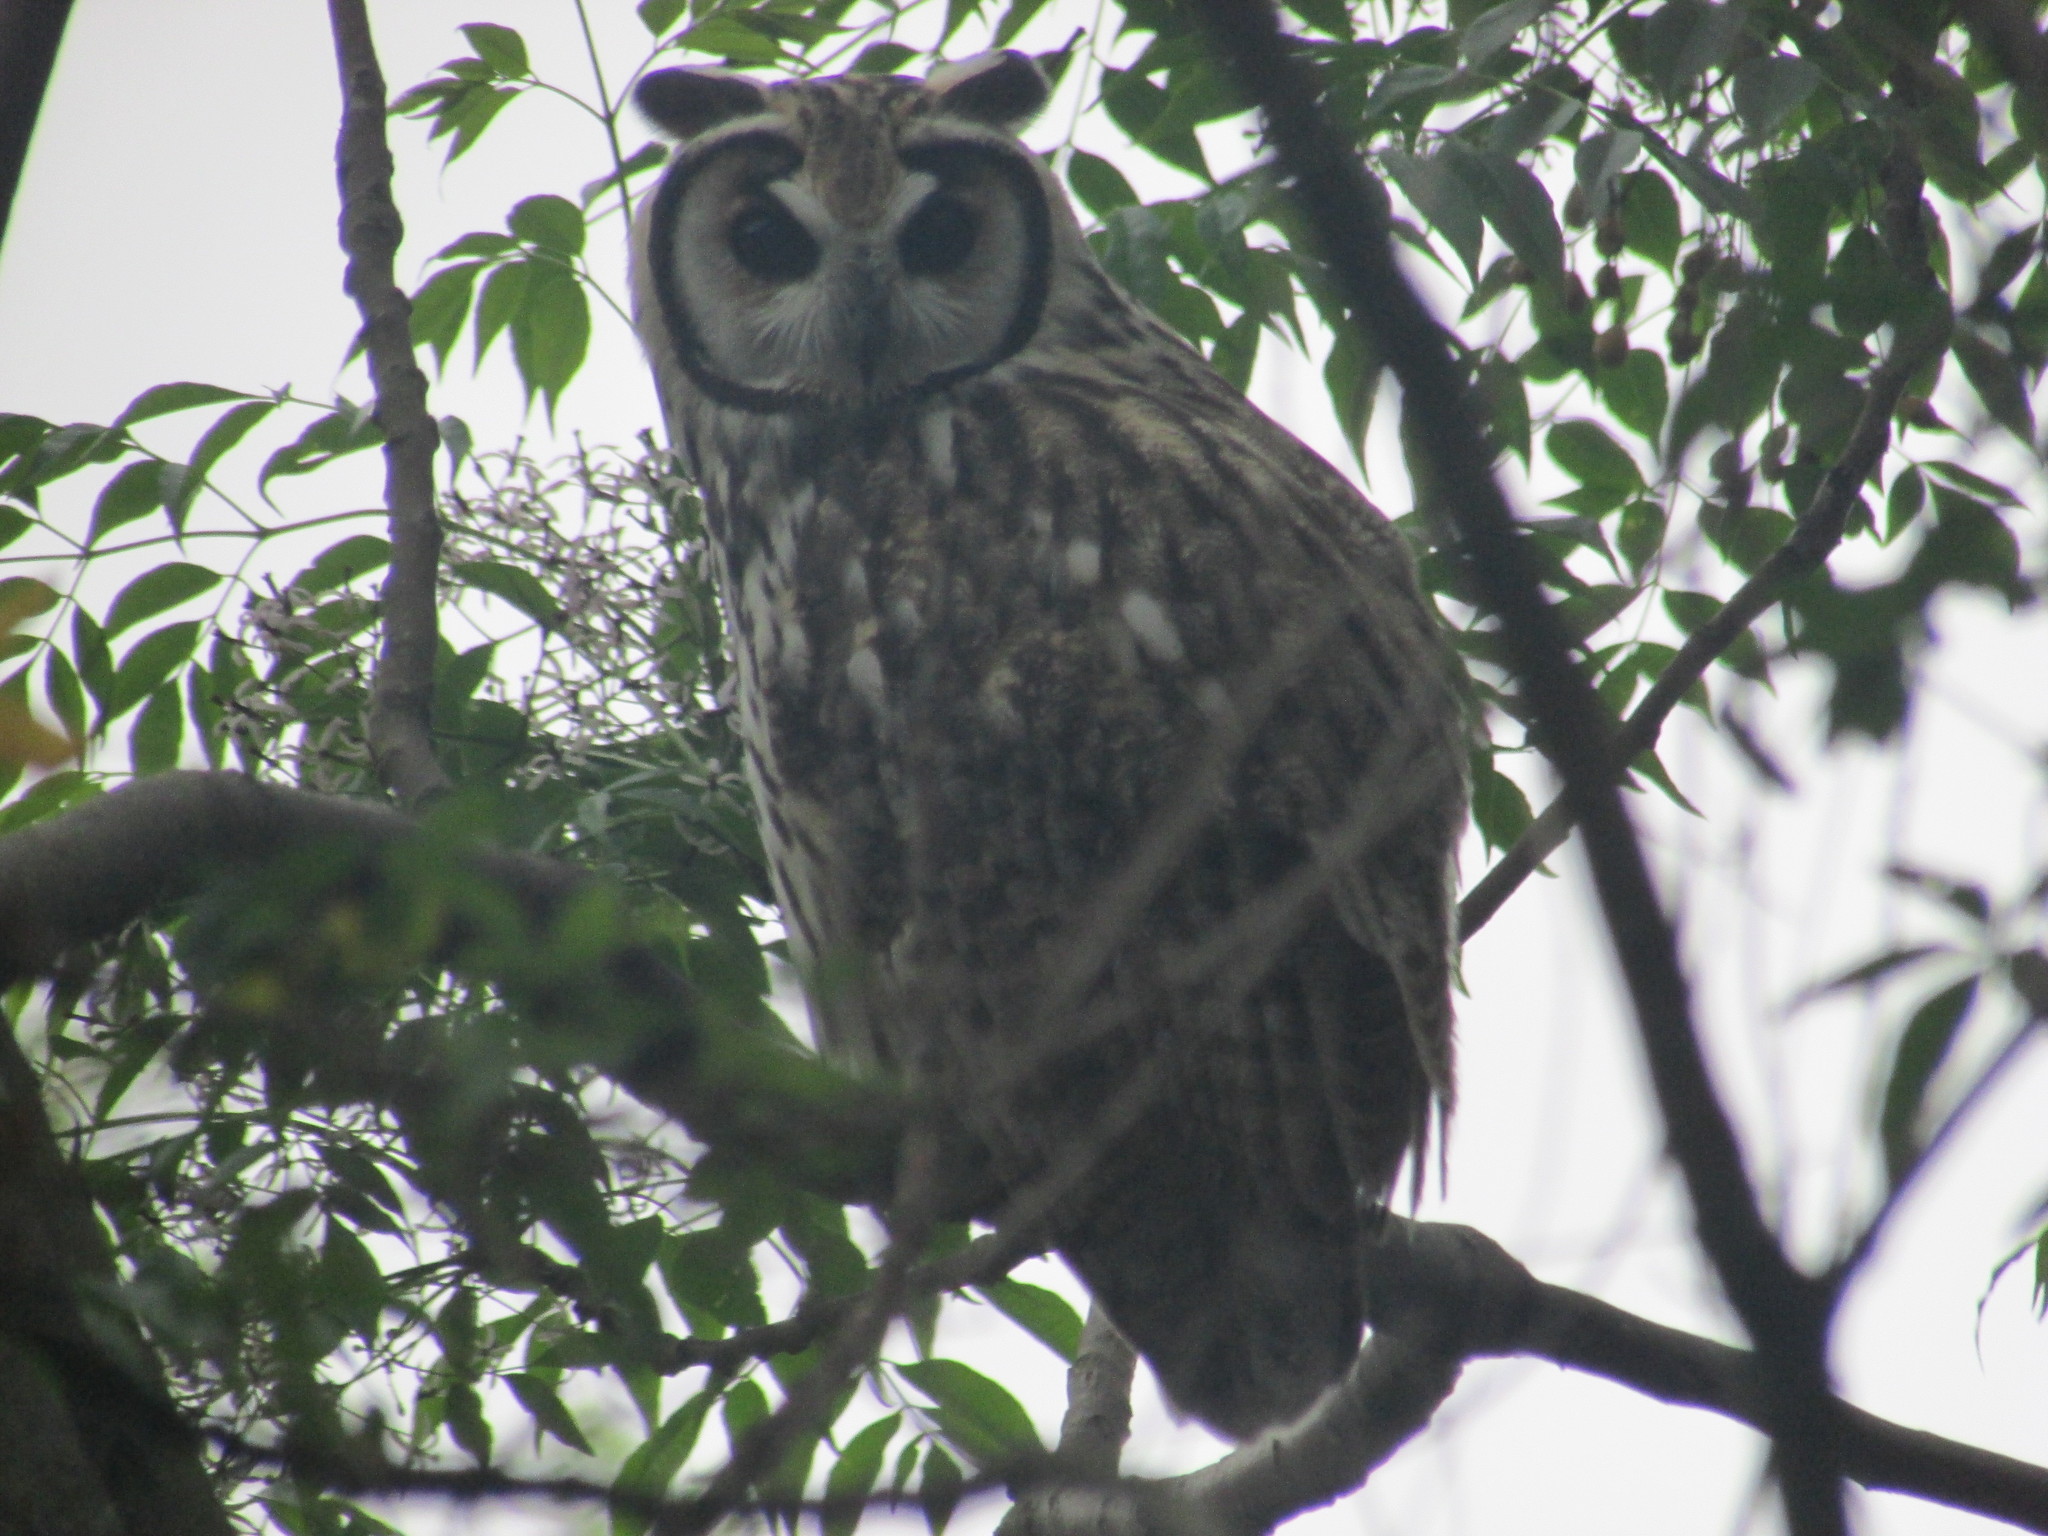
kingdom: Animalia
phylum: Chordata
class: Aves
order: Strigiformes
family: Strigidae
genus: Pseudoscops
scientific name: Pseudoscops clamator
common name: Striped owl
